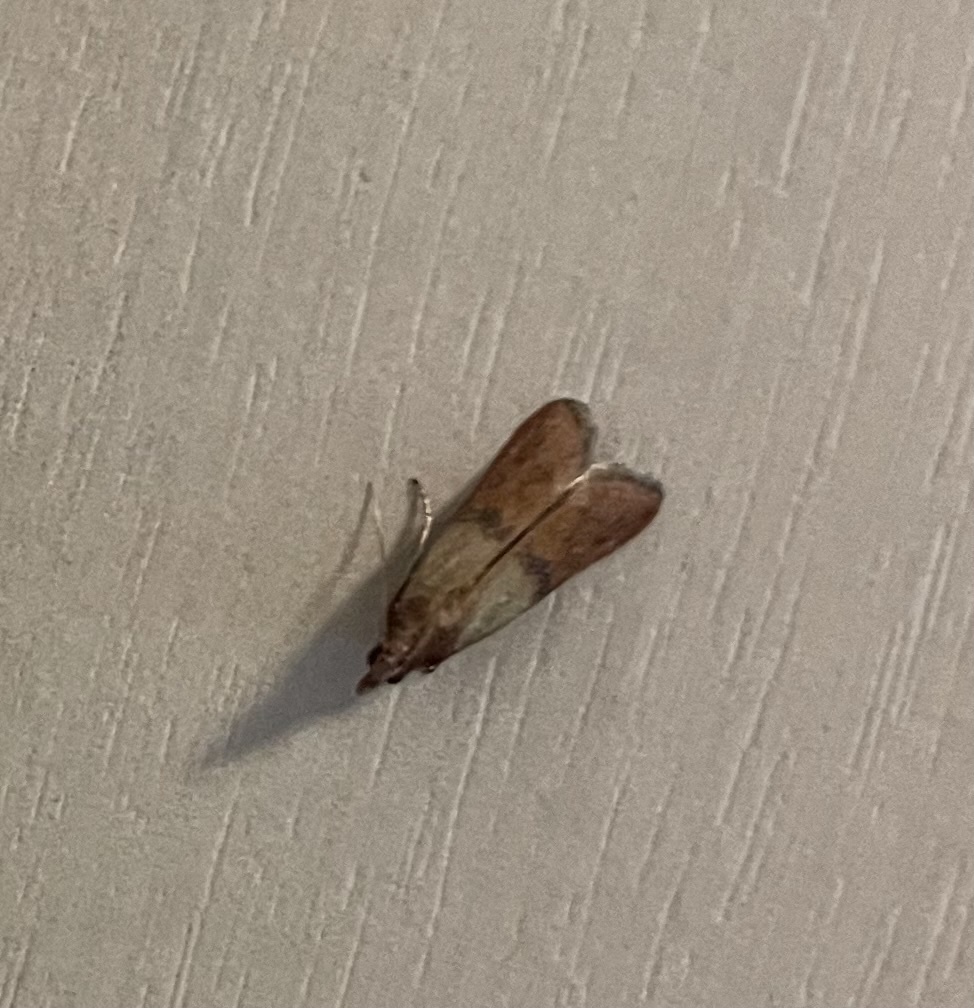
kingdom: Animalia
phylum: Arthropoda
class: Insecta
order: Lepidoptera
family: Pyralidae
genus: Plodia
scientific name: Plodia interpunctella
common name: Indian meal moth
